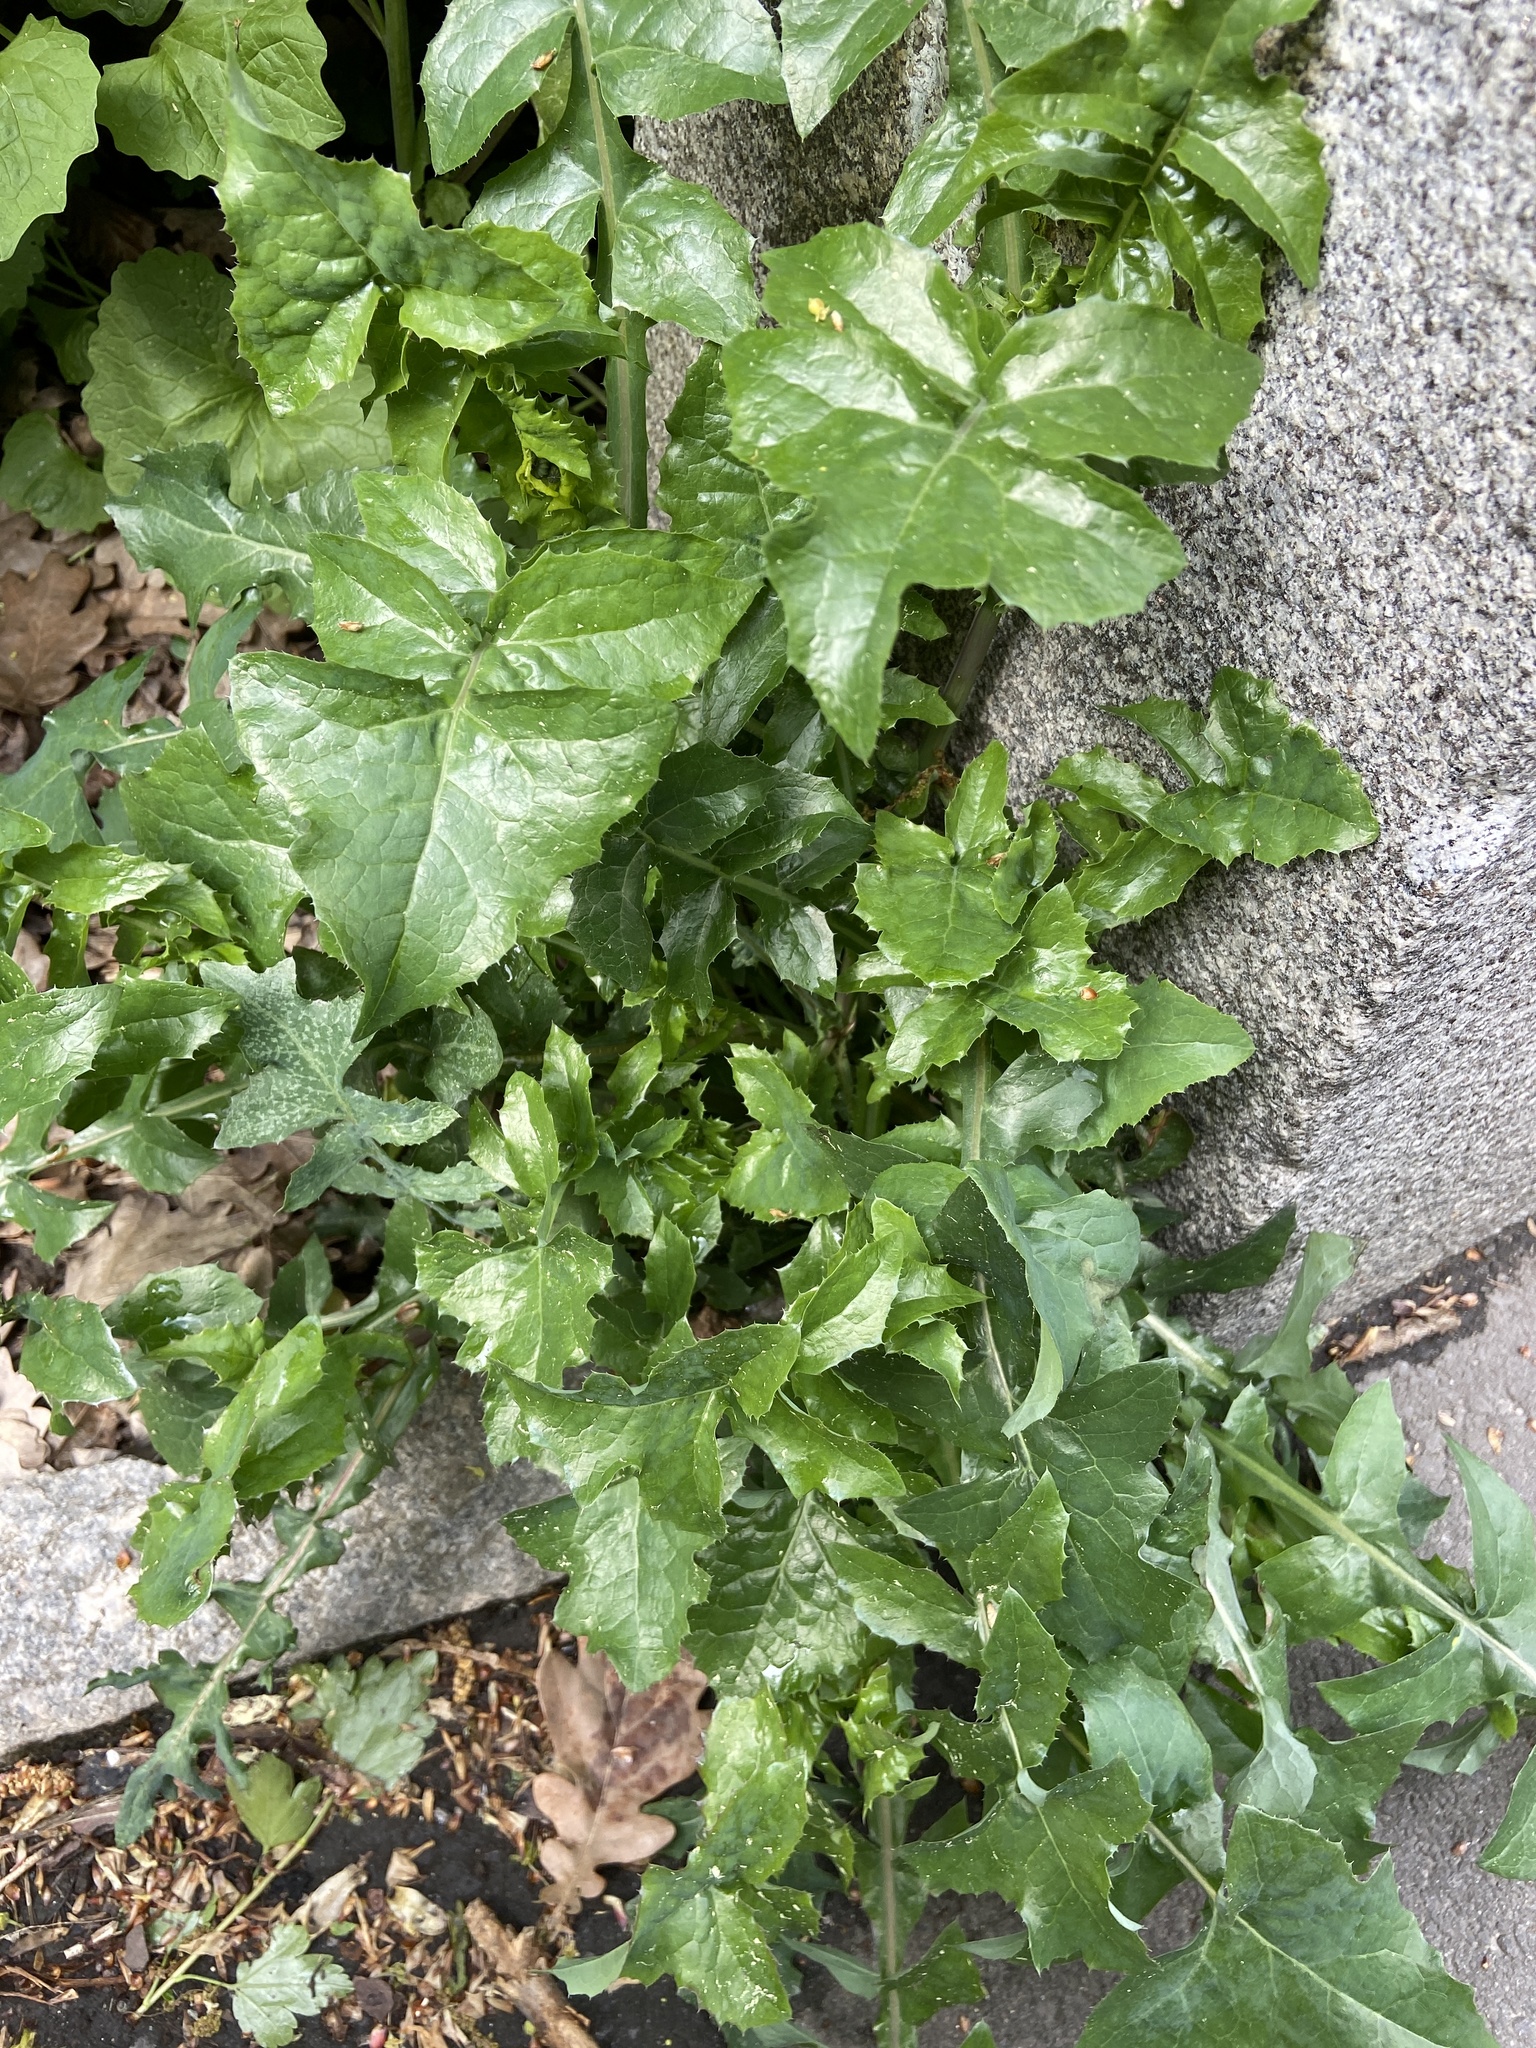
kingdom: Plantae
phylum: Tracheophyta
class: Magnoliopsida
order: Asterales
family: Asteraceae
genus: Sonchus
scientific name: Sonchus oleraceus
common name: Common sowthistle
